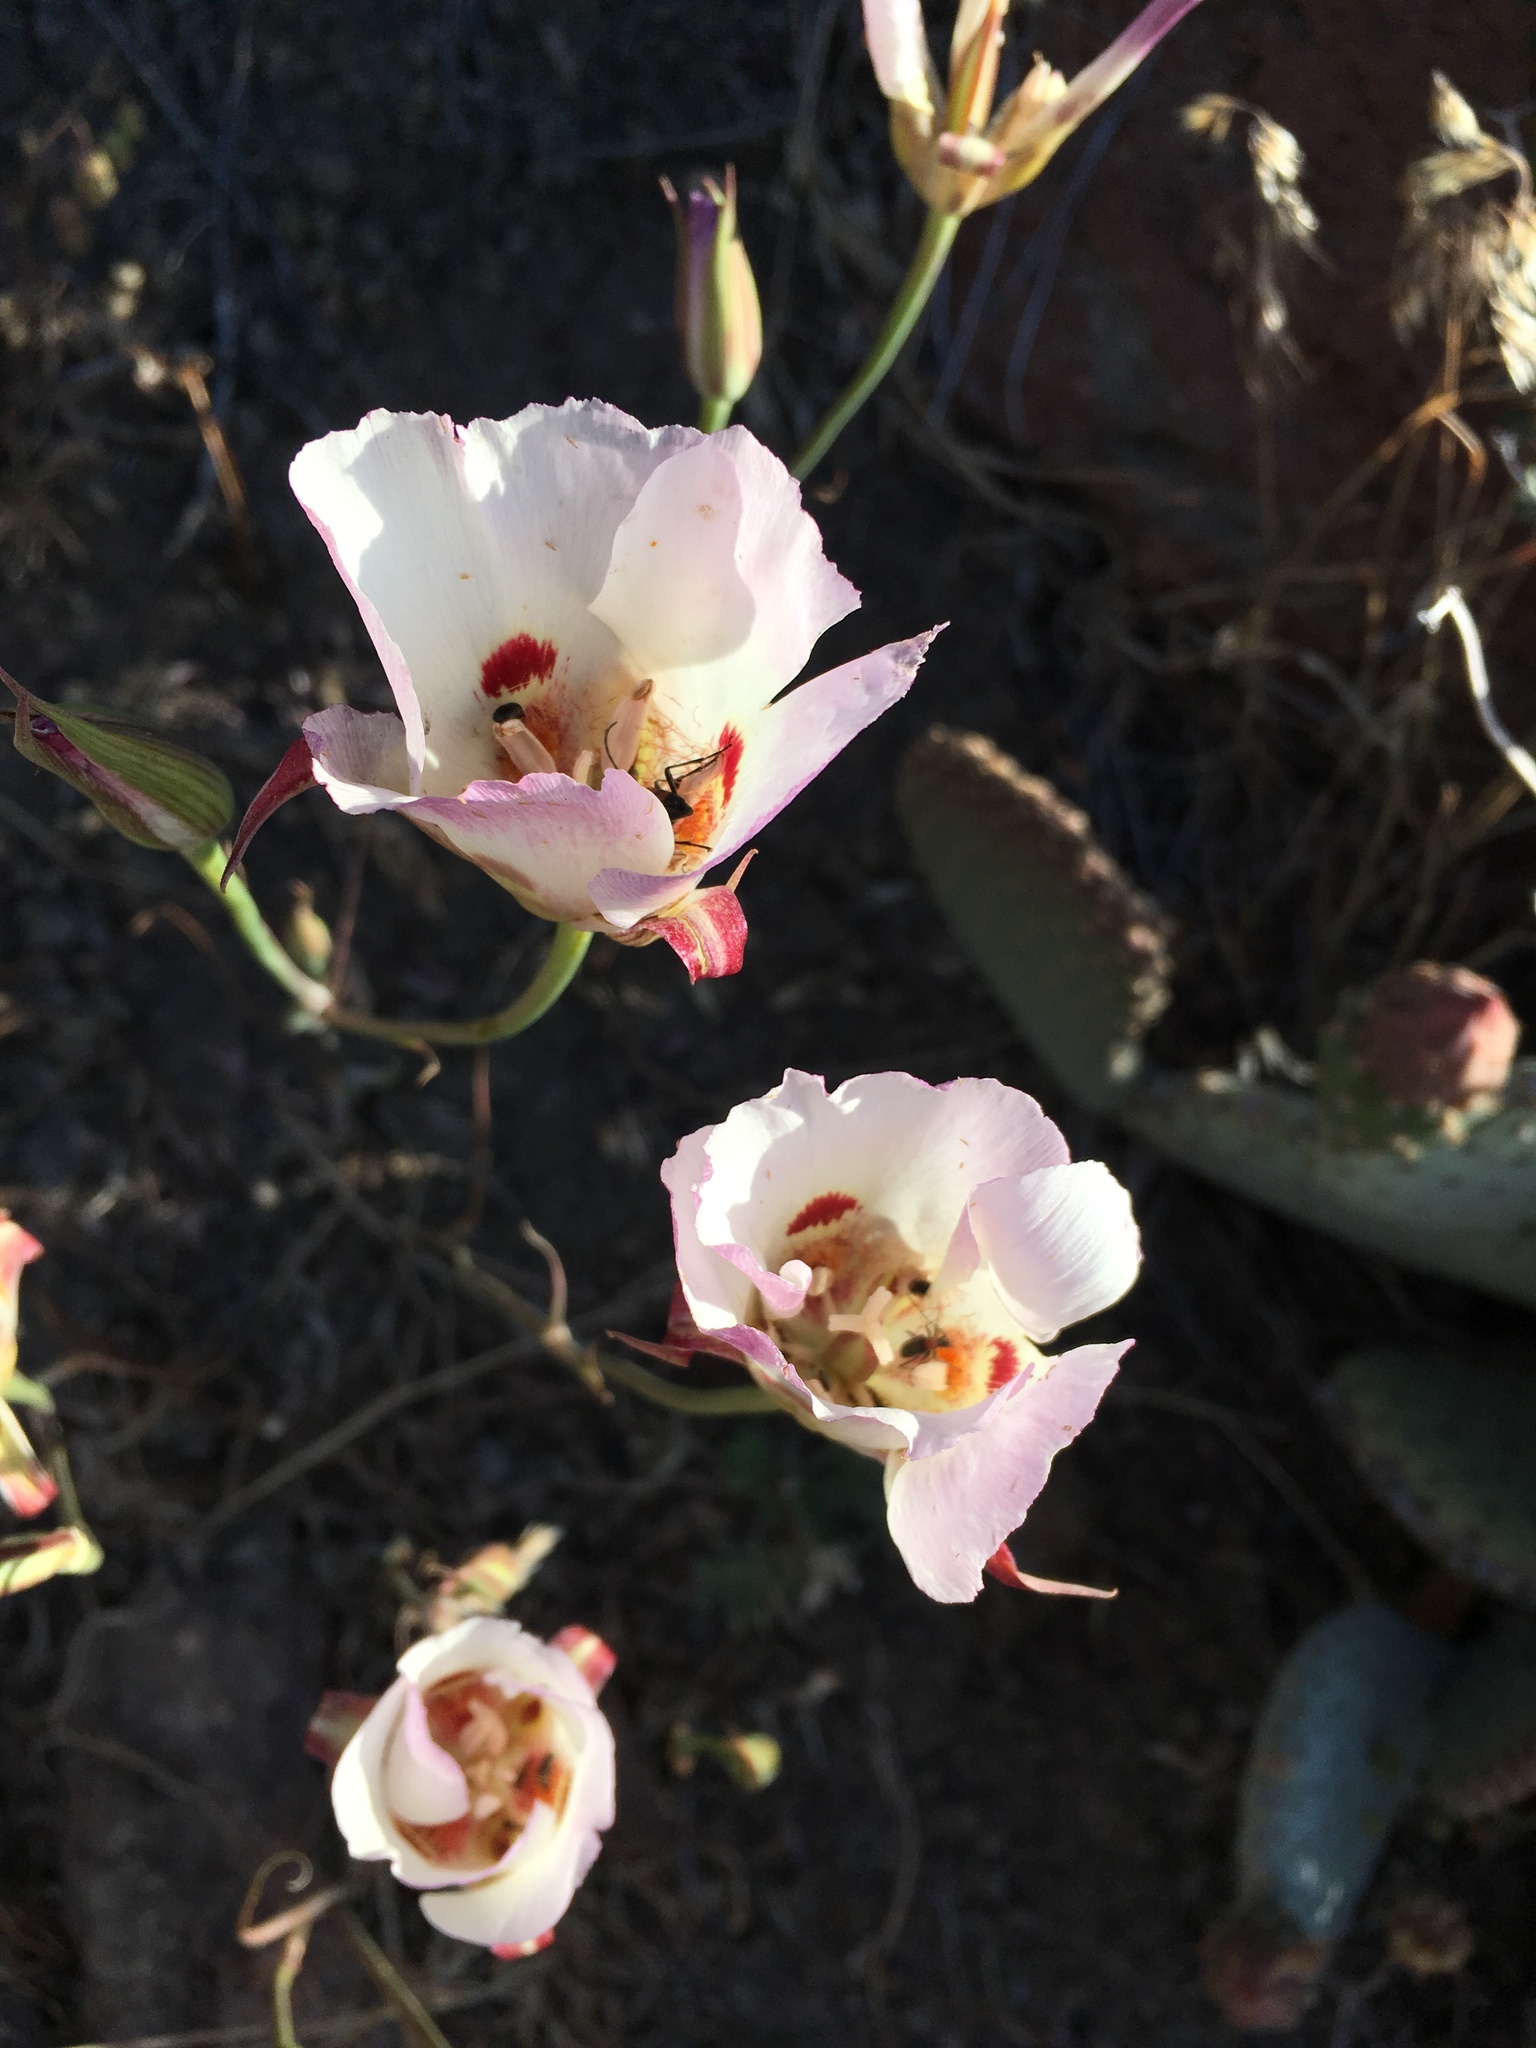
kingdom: Plantae
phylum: Tracheophyta
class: Liliopsida
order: Liliales
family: Liliaceae
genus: Calochortus
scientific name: Calochortus venustus
